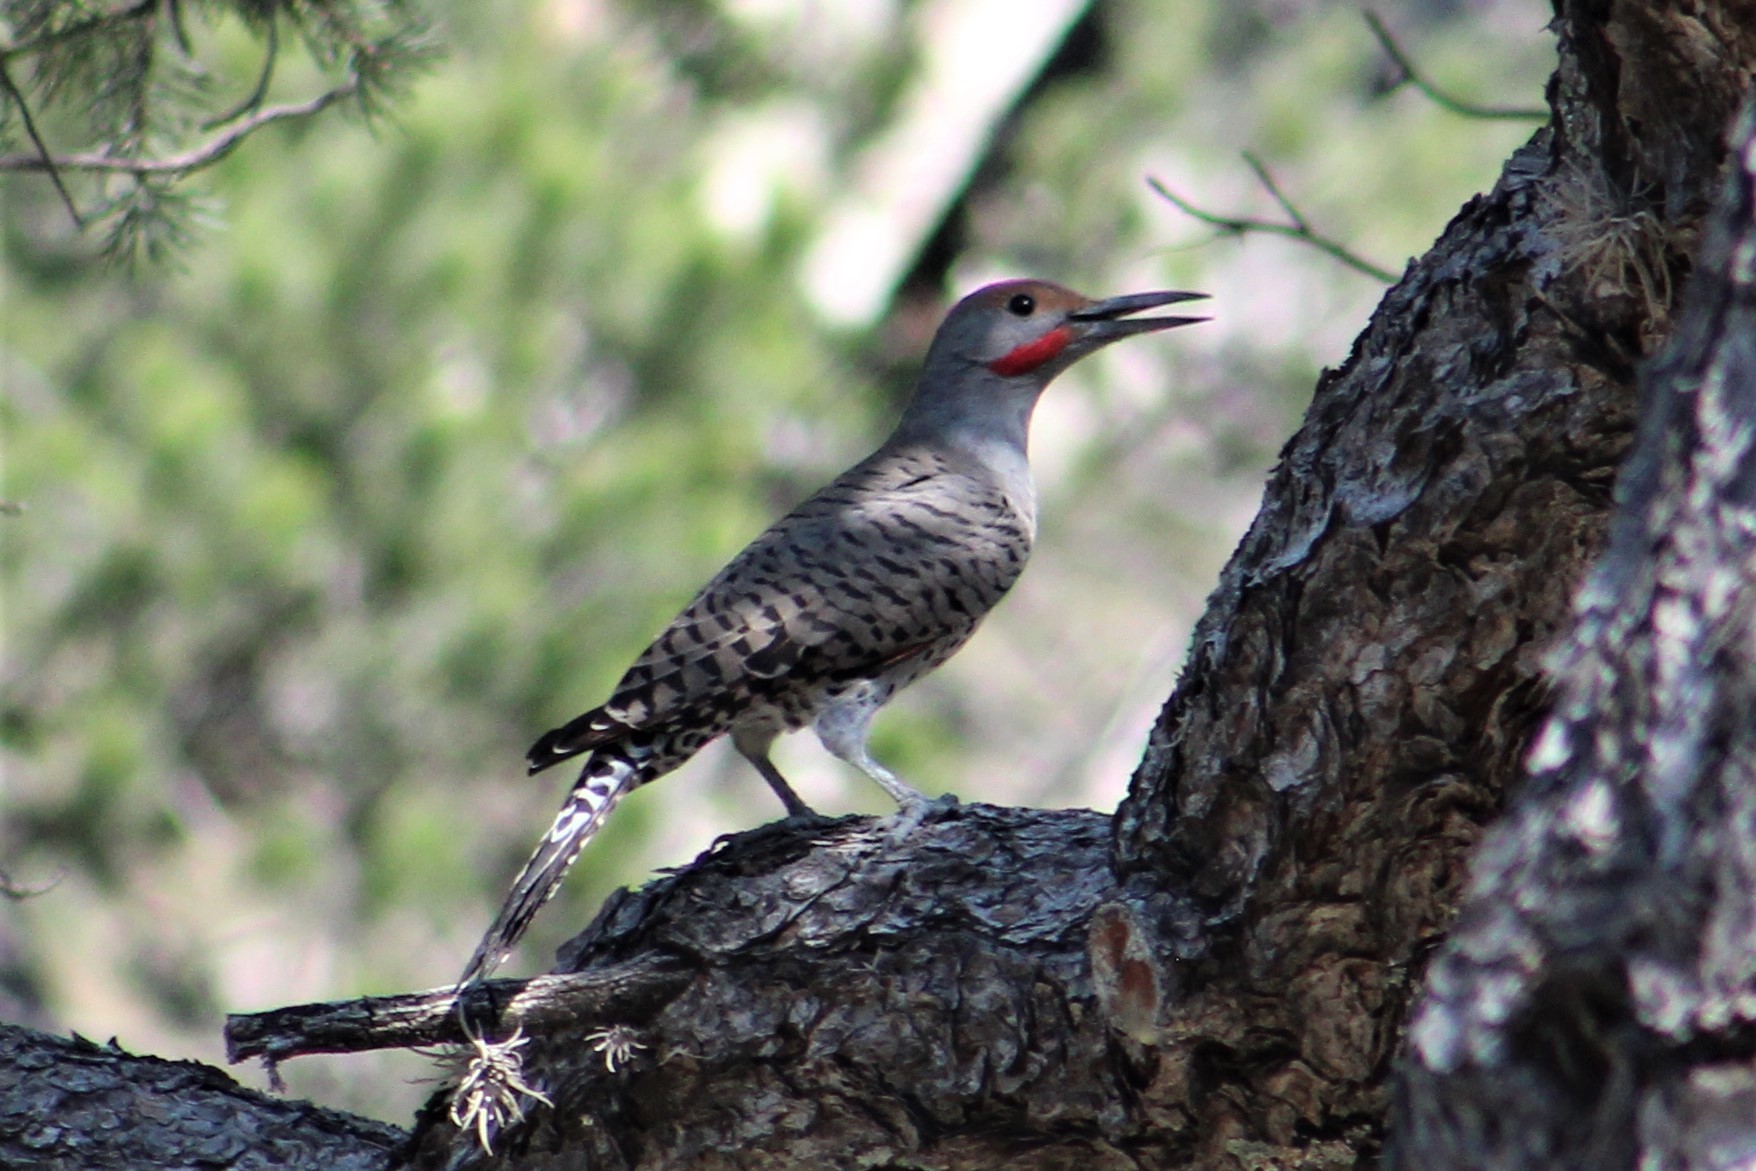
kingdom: Animalia
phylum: Chordata
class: Aves
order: Piciformes
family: Picidae
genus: Colaptes
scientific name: Colaptes auratus
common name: Northern flicker
